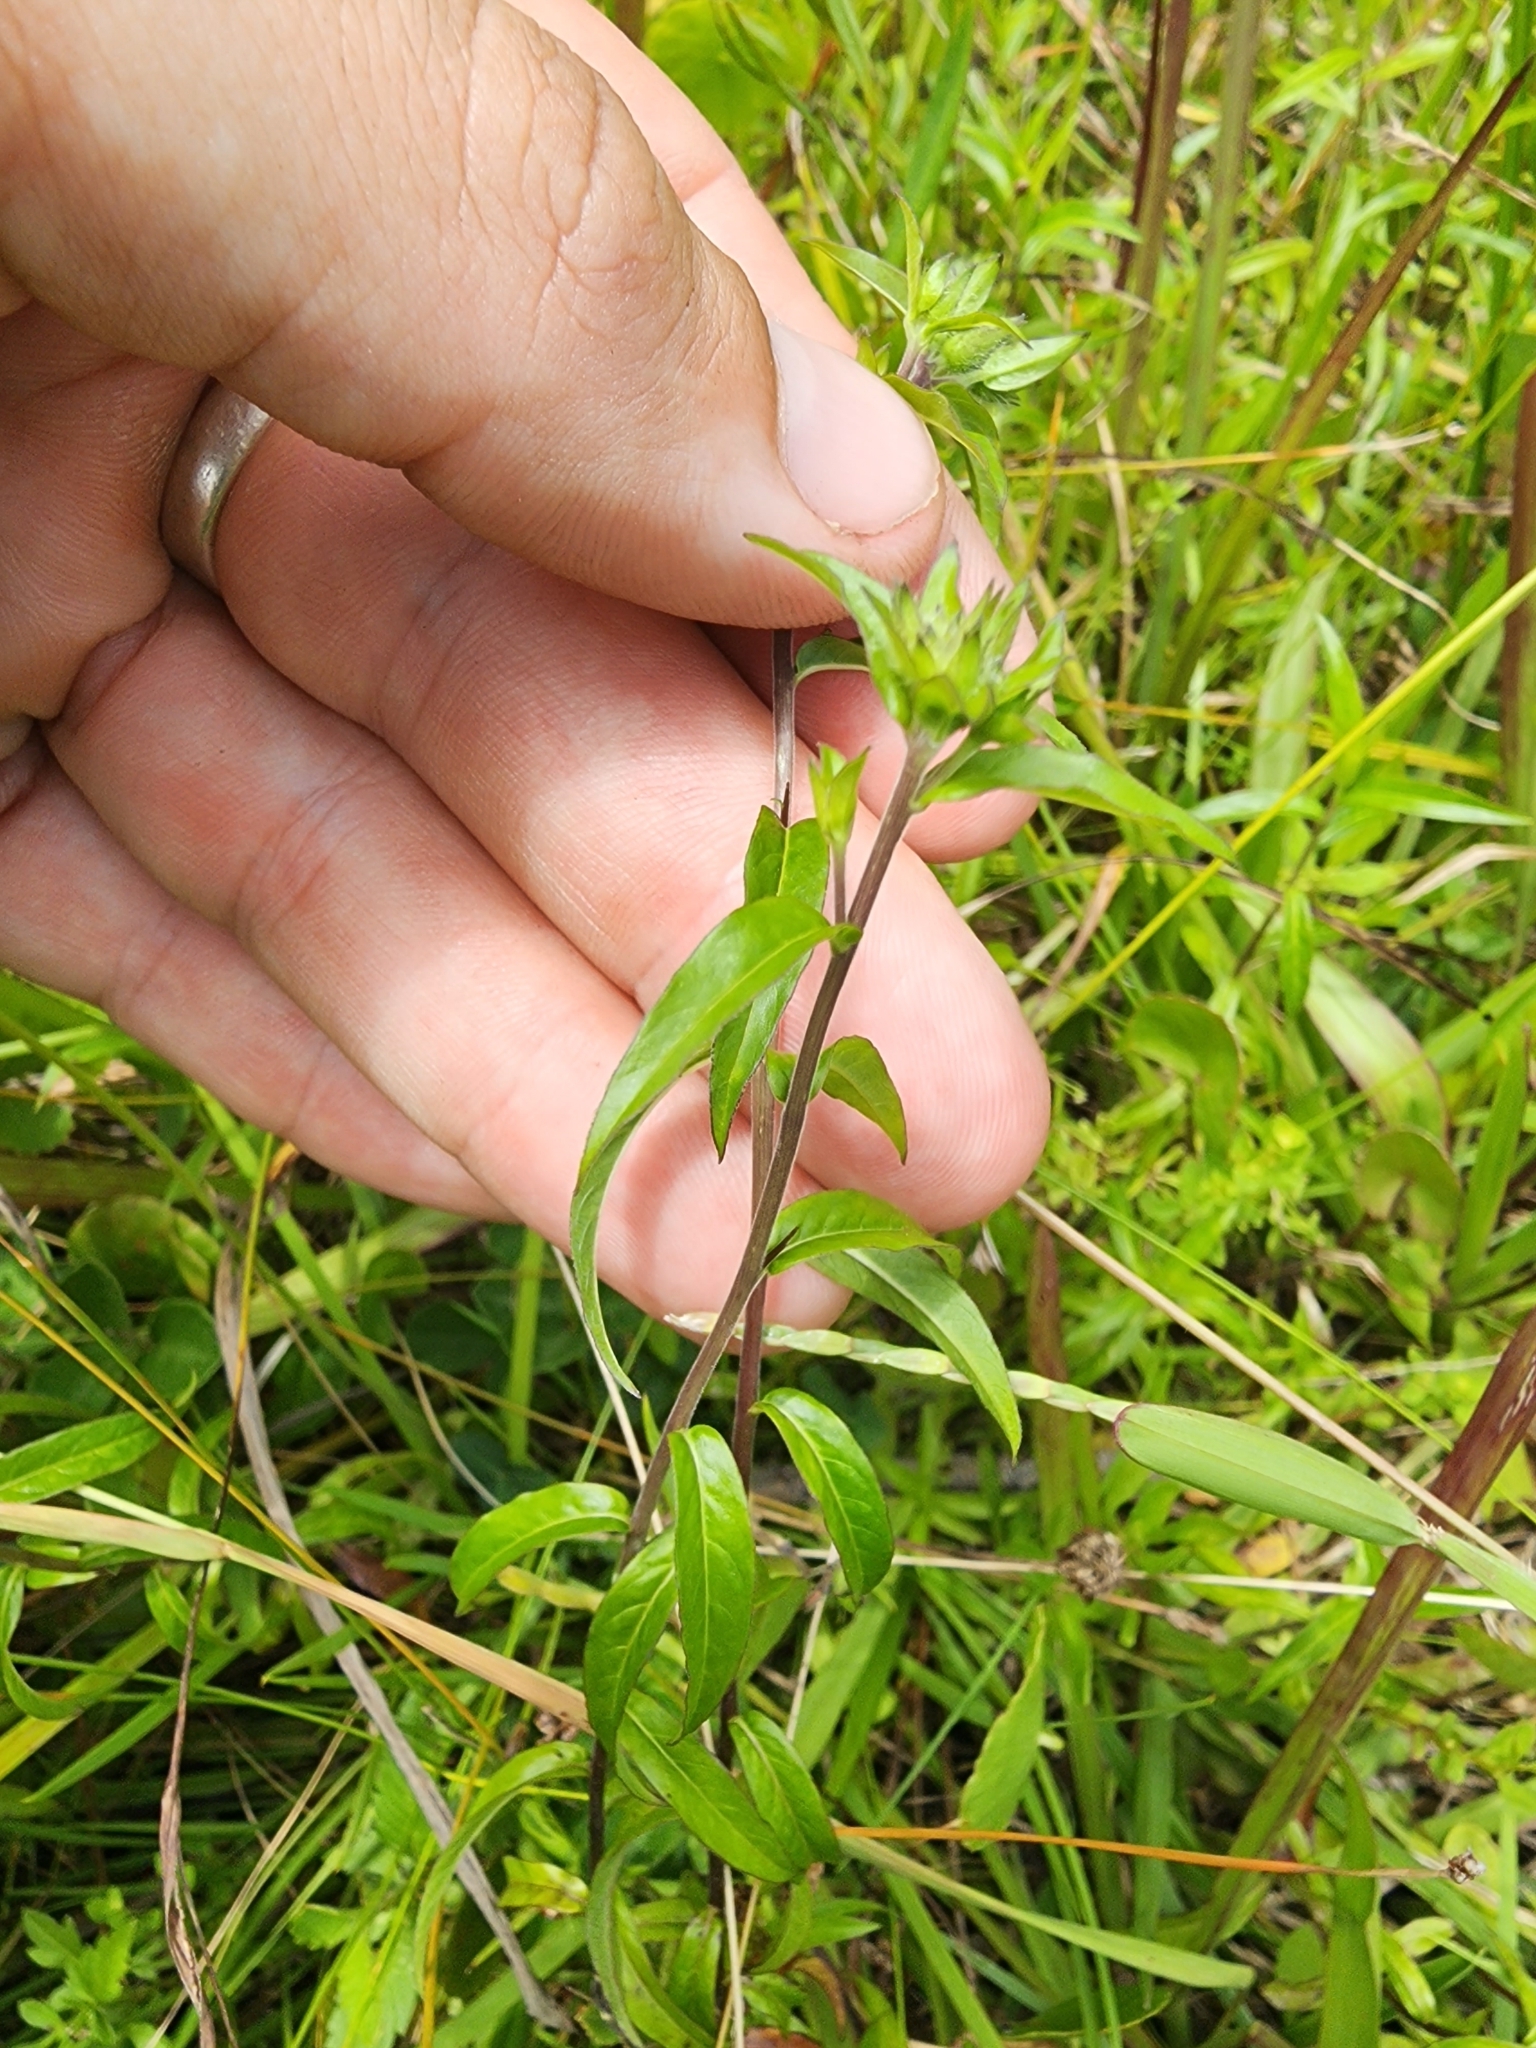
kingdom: Plantae
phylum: Tracheophyta
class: Magnoliopsida
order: Solanales
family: Hydroleaceae
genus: Hydrolea
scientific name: Hydrolea corymbosa
